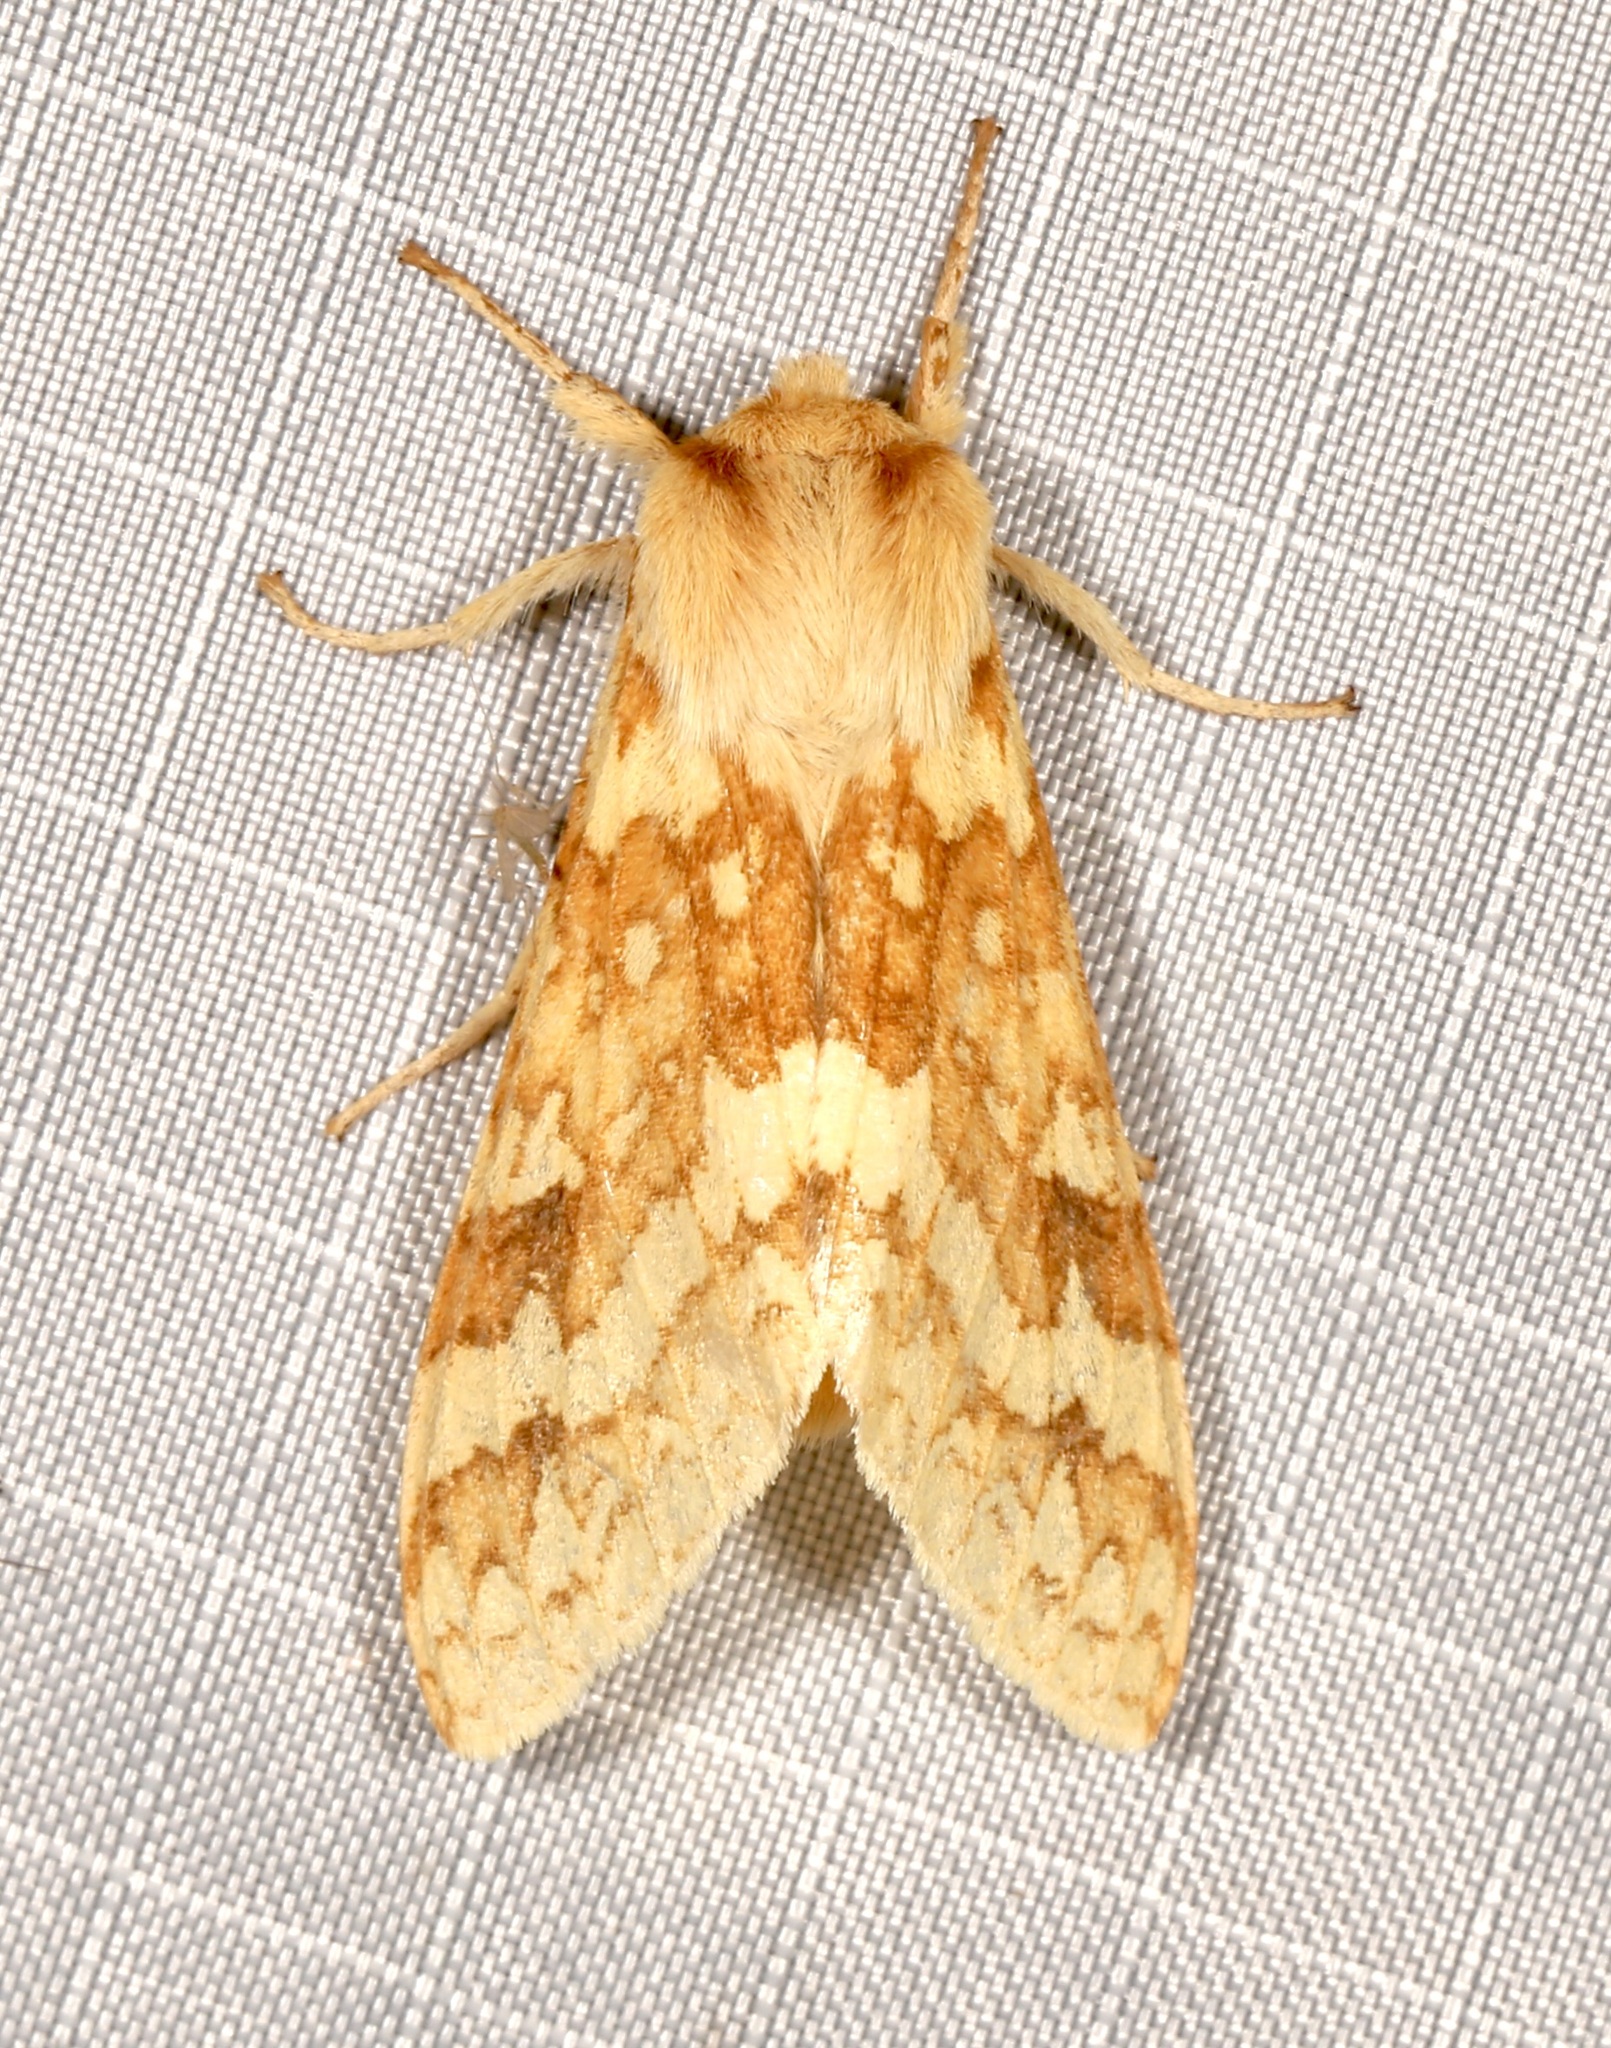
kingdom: Animalia
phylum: Arthropoda
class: Insecta
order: Lepidoptera
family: Erebidae
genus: Lophocampa
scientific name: Lophocampa maculata
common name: Spotted tussock moth
